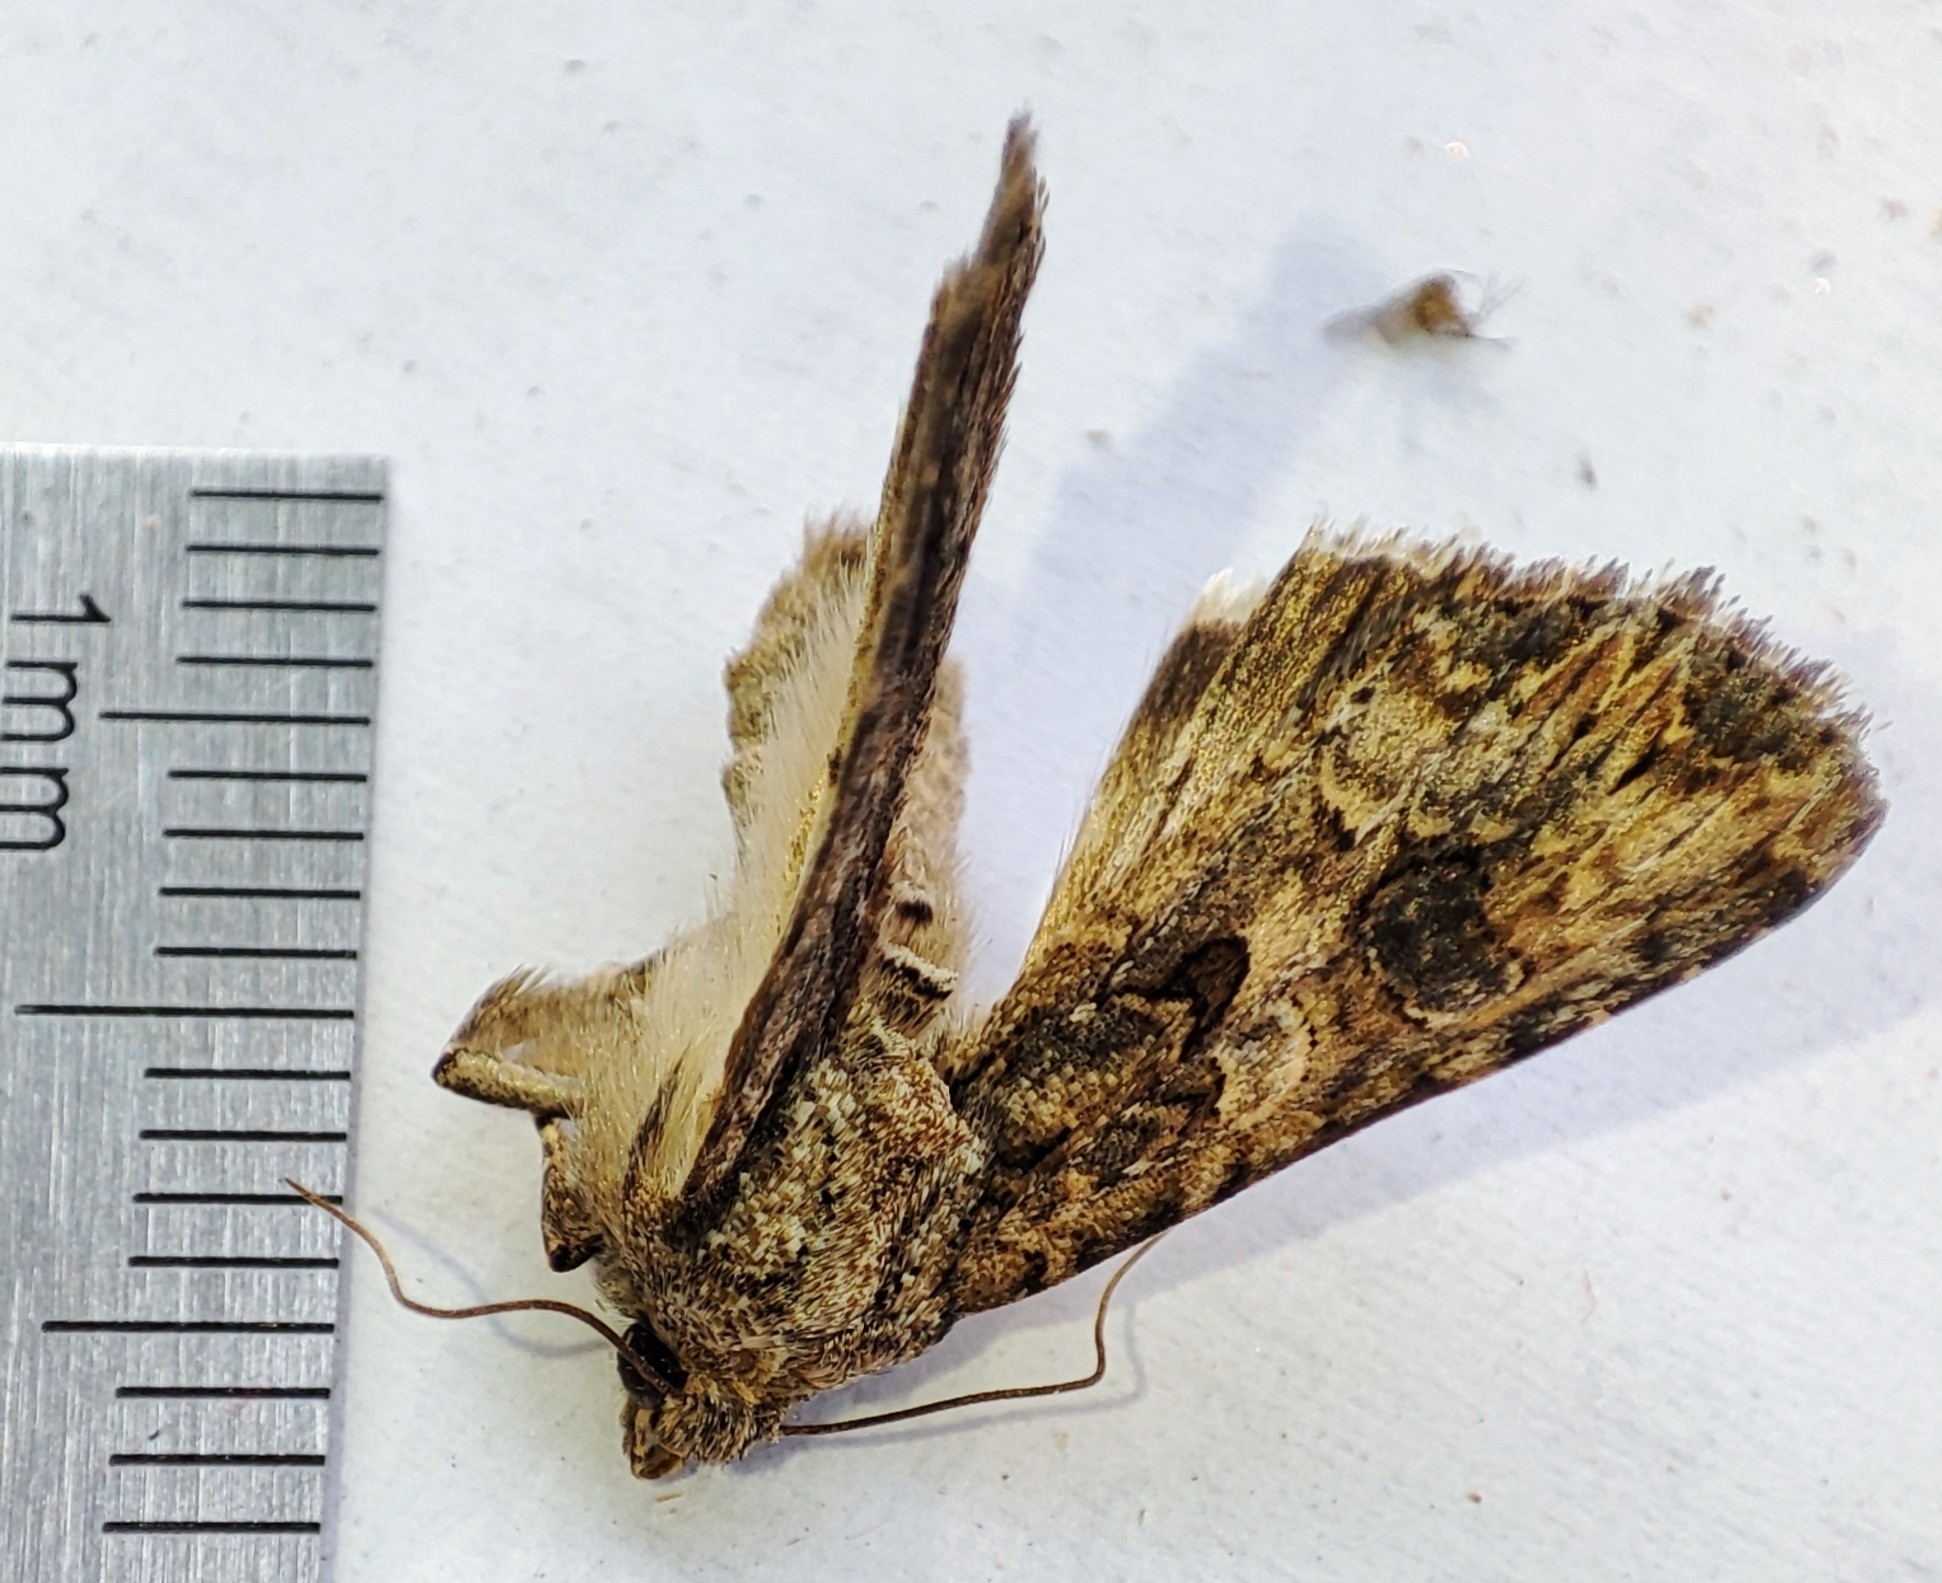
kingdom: Animalia
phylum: Arthropoda
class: Insecta
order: Lepidoptera
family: Noctuidae
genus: Anarta
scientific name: Anarta trifolii
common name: Clover cutworm moth
